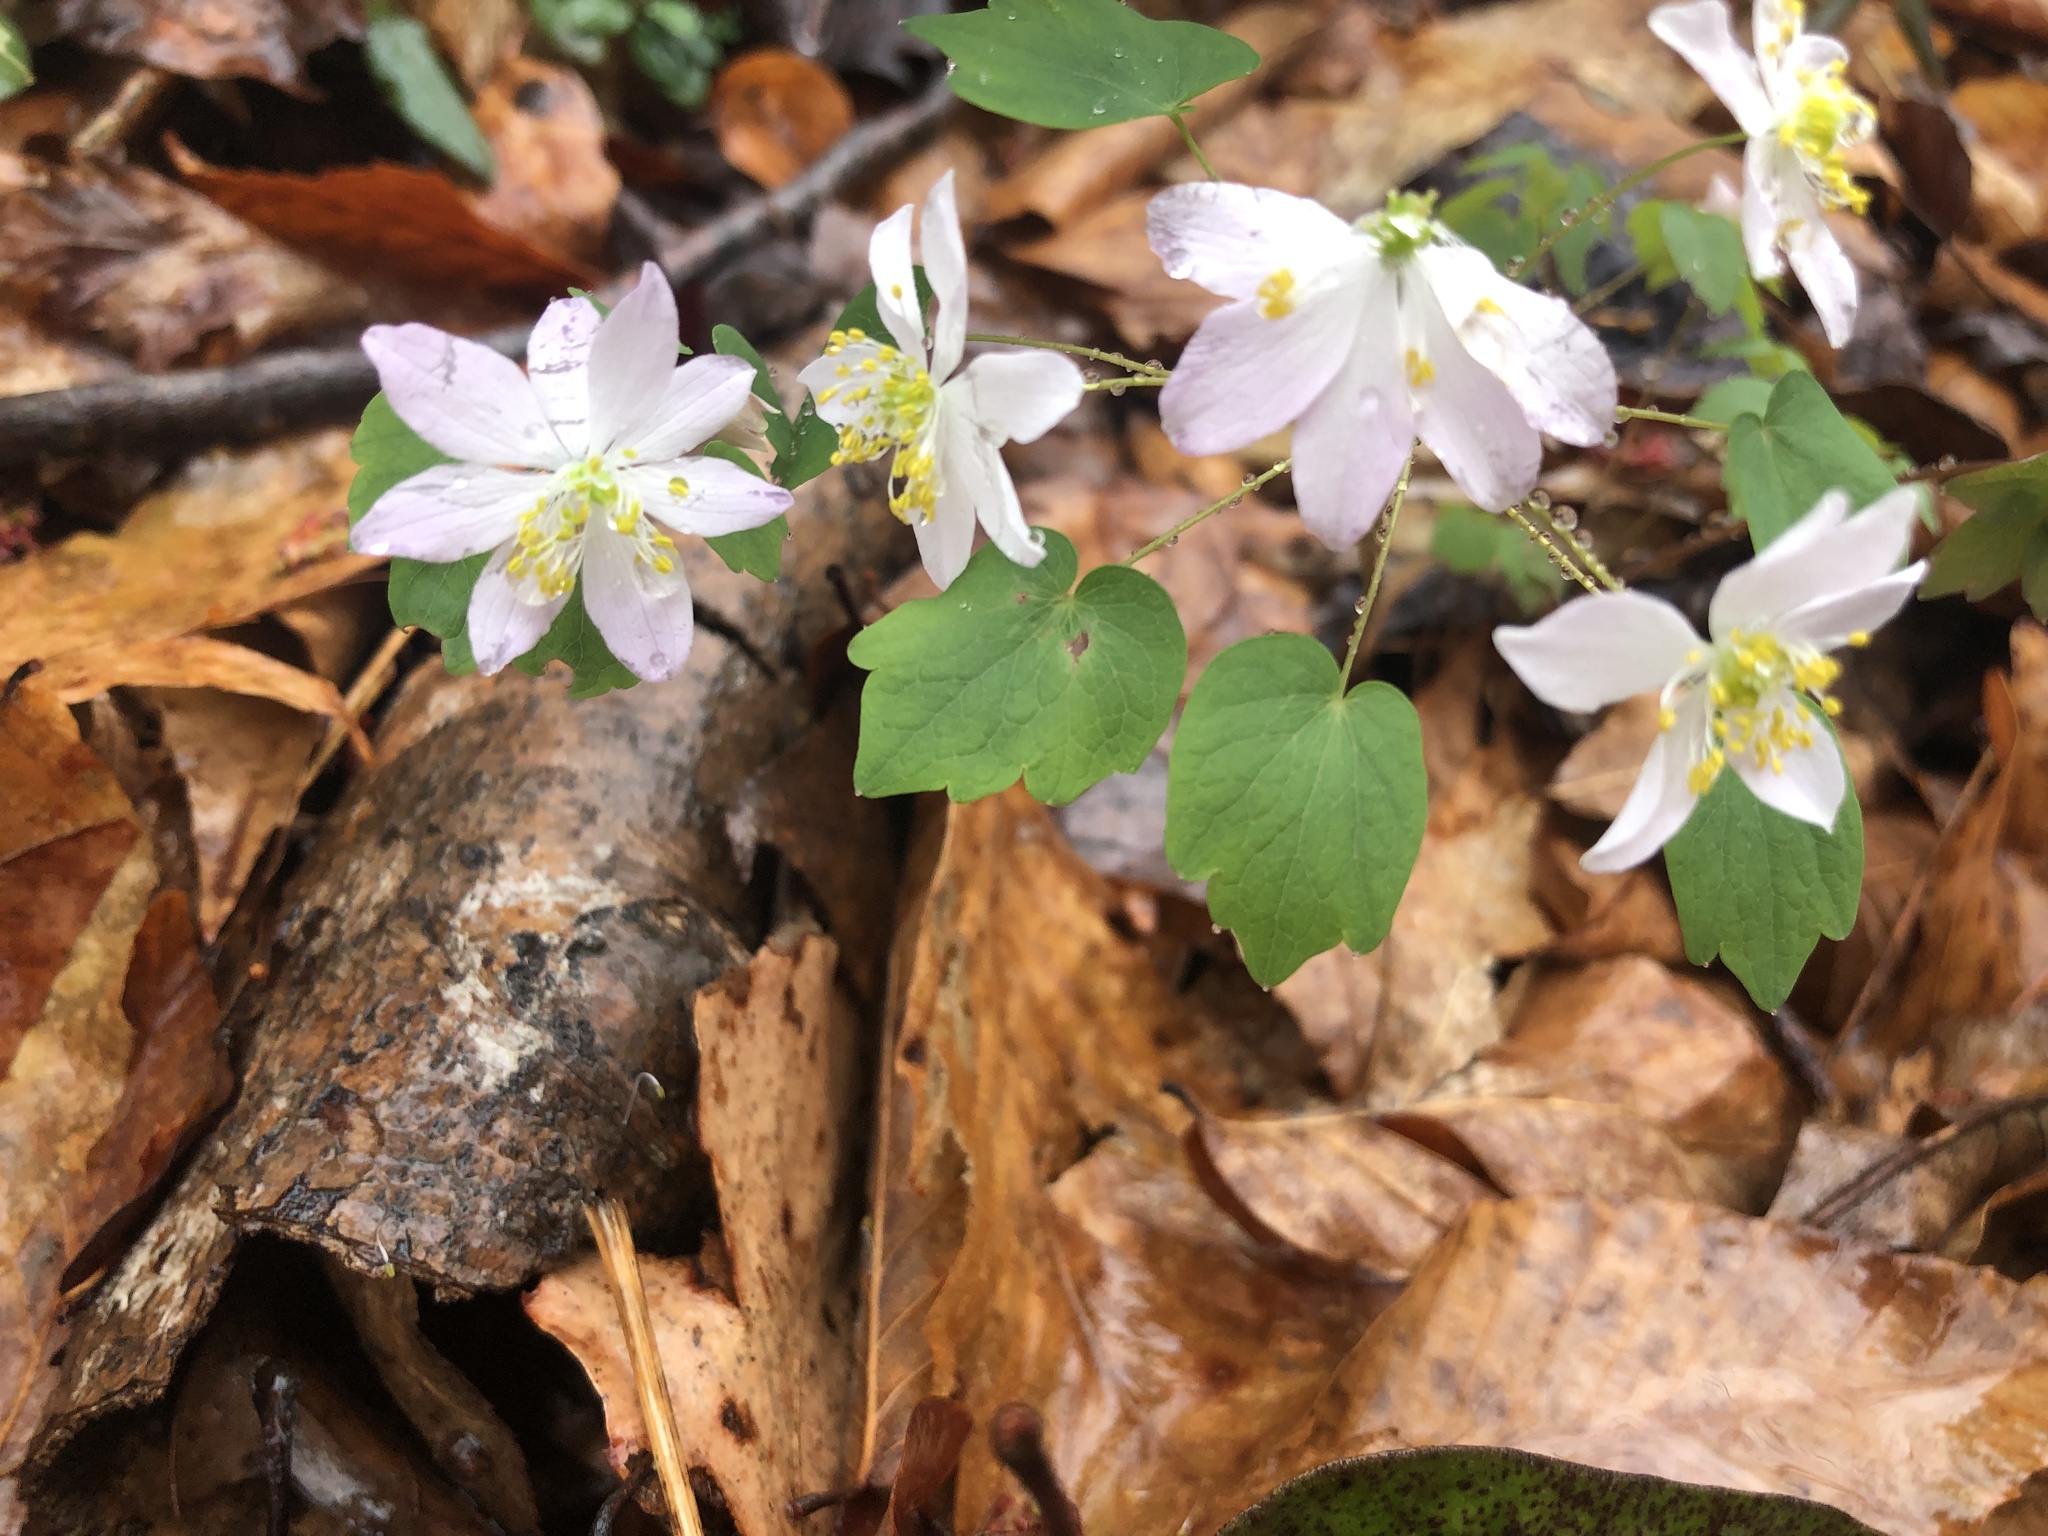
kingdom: Plantae
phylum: Tracheophyta
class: Magnoliopsida
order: Ranunculales
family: Ranunculaceae
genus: Thalictrum
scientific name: Thalictrum thalictroides
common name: Rue-anemone
